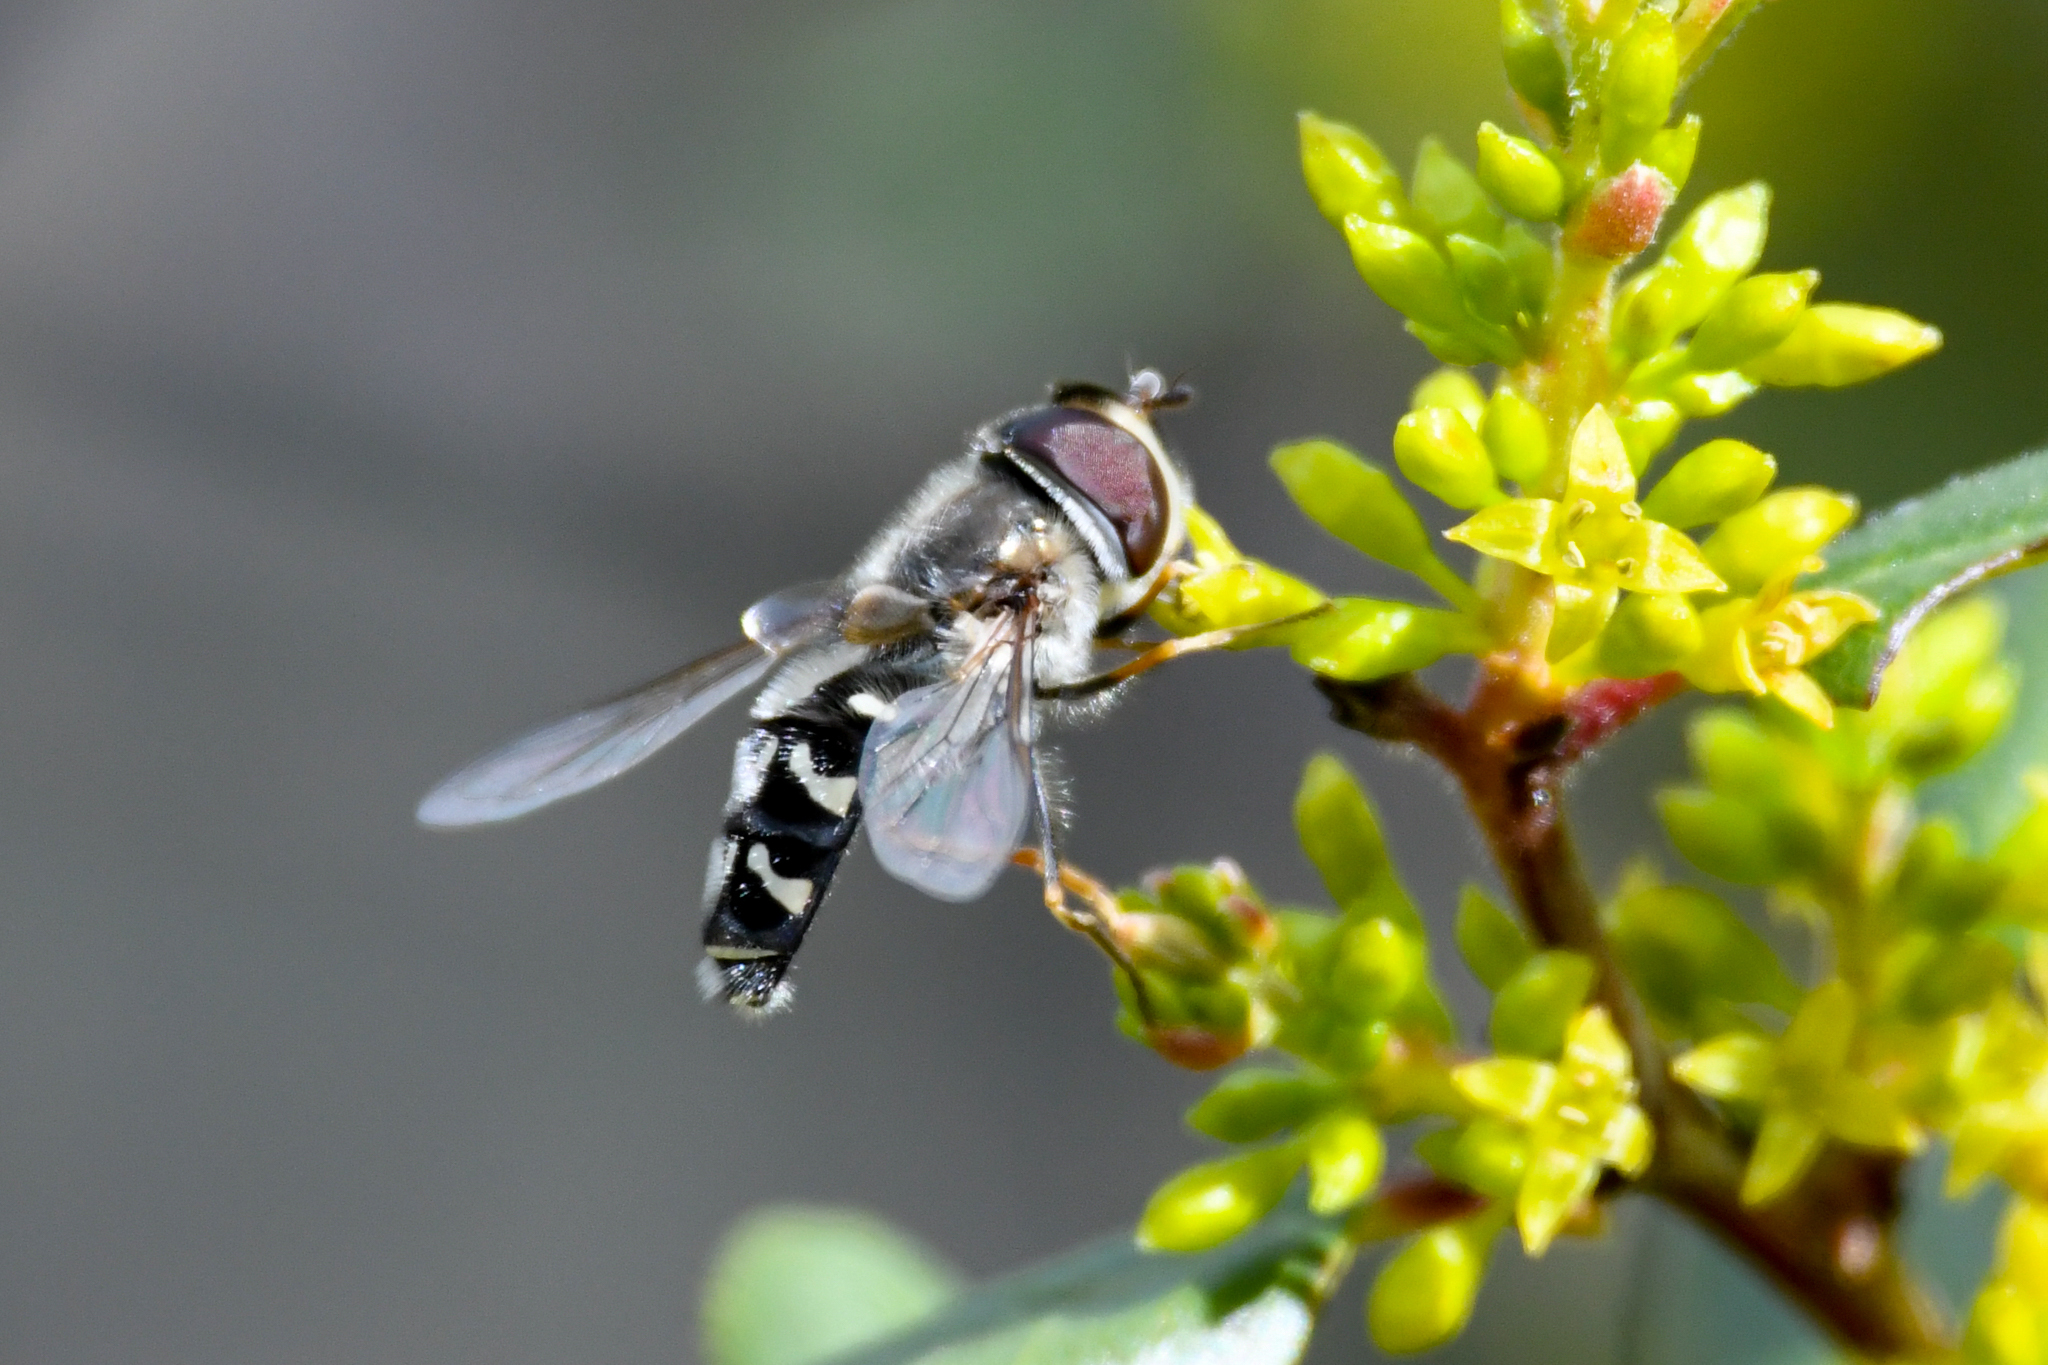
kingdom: Animalia
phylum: Arthropoda
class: Insecta
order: Diptera
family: Syrphidae
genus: Scaeva
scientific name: Scaeva affinis
